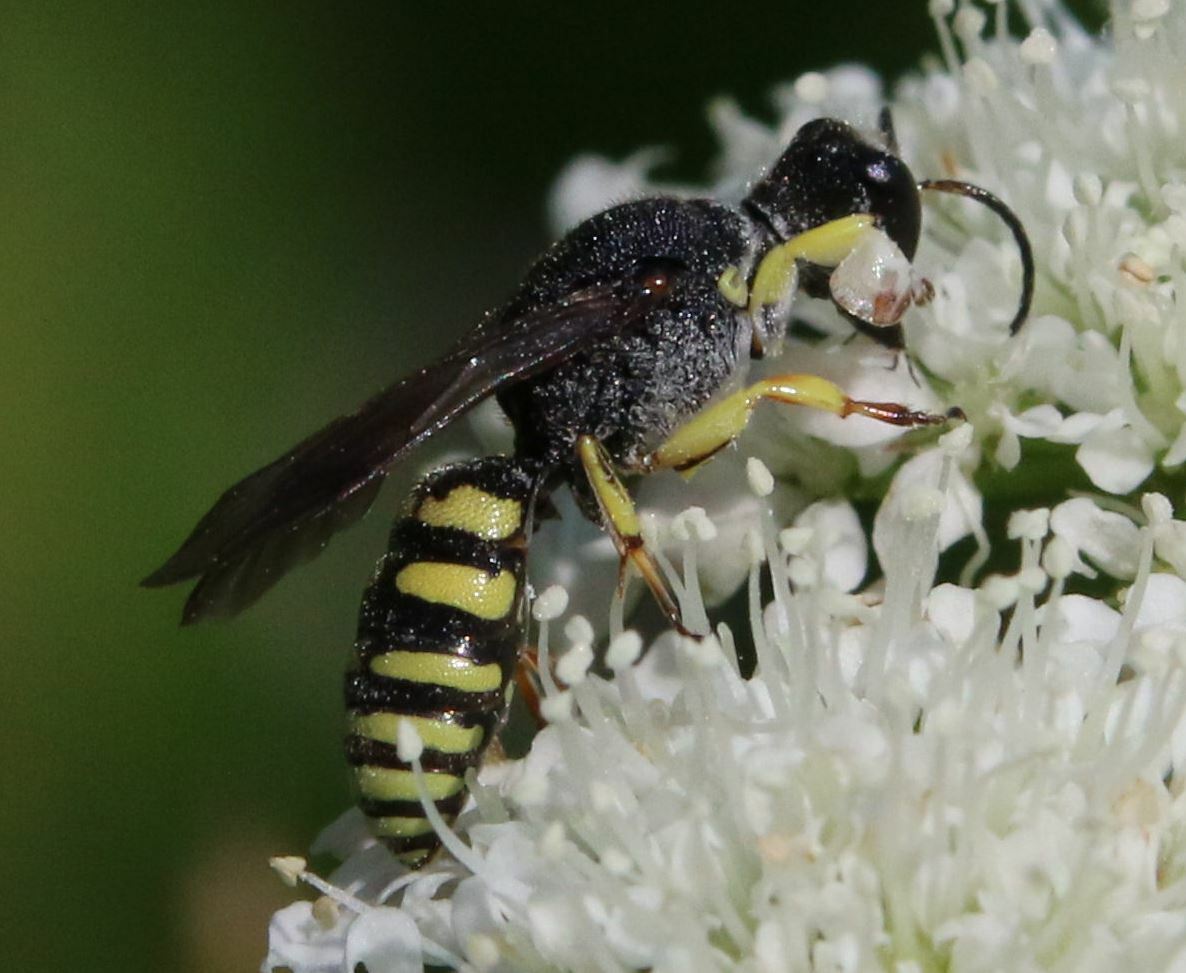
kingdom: Animalia
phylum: Arthropoda
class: Insecta
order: Hymenoptera
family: Crabronidae
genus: Lestica
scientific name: Lestica clypeata
